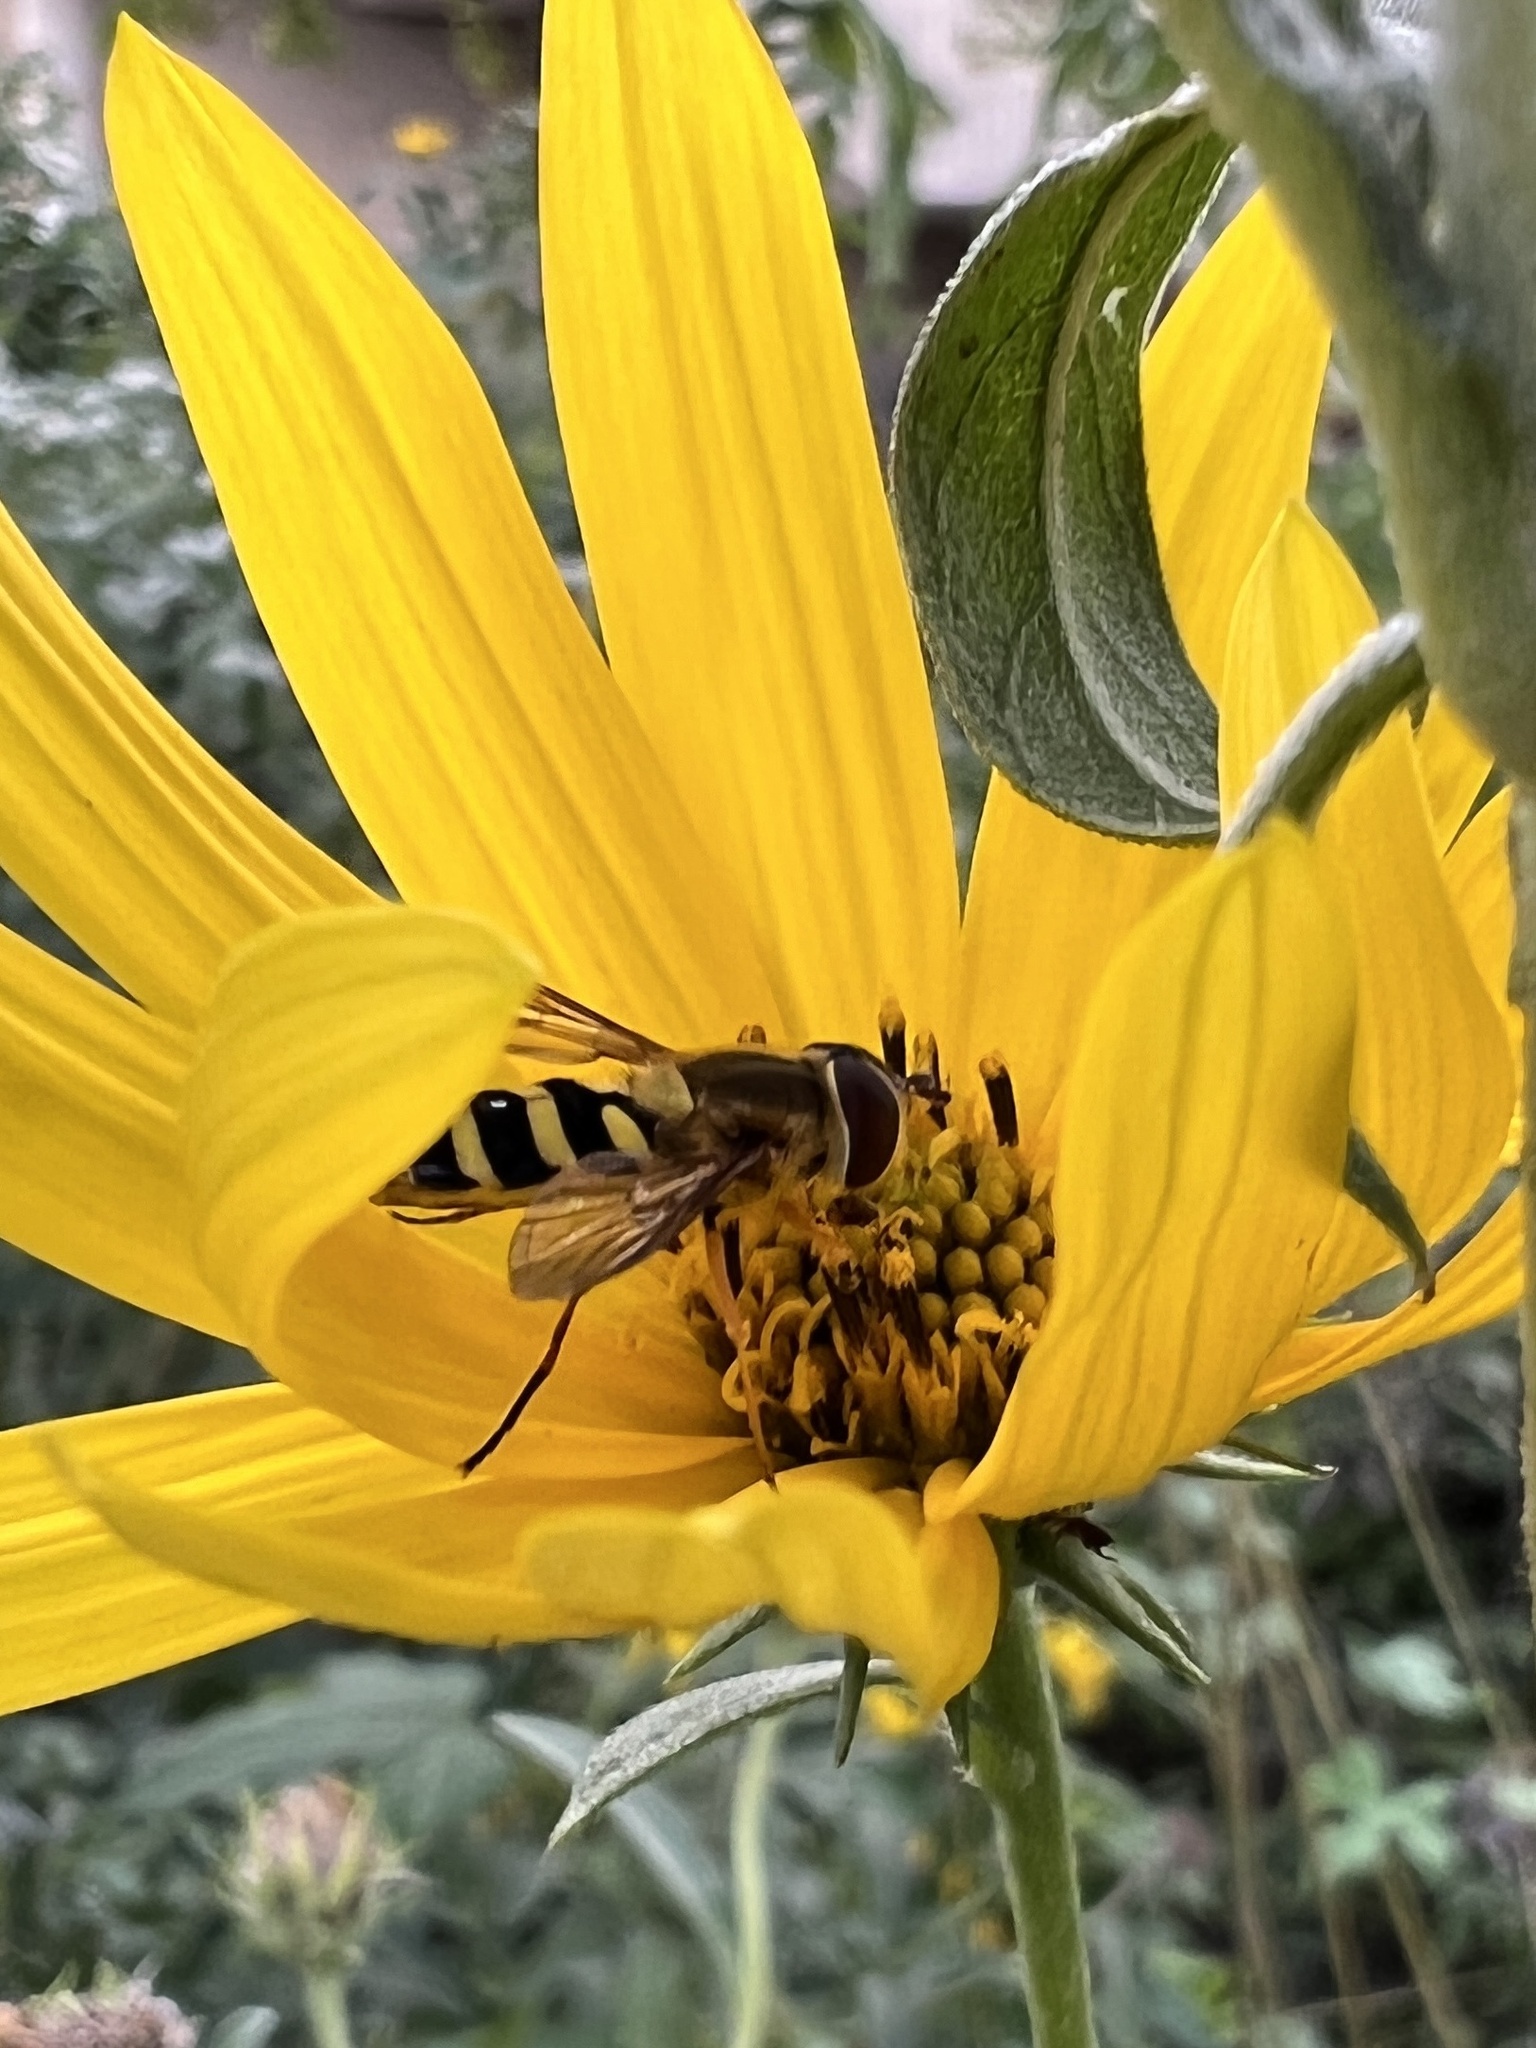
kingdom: Animalia
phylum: Arthropoda
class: Insecta
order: Diptera
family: Syrphidae
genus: Syrphus
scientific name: Syrphus
